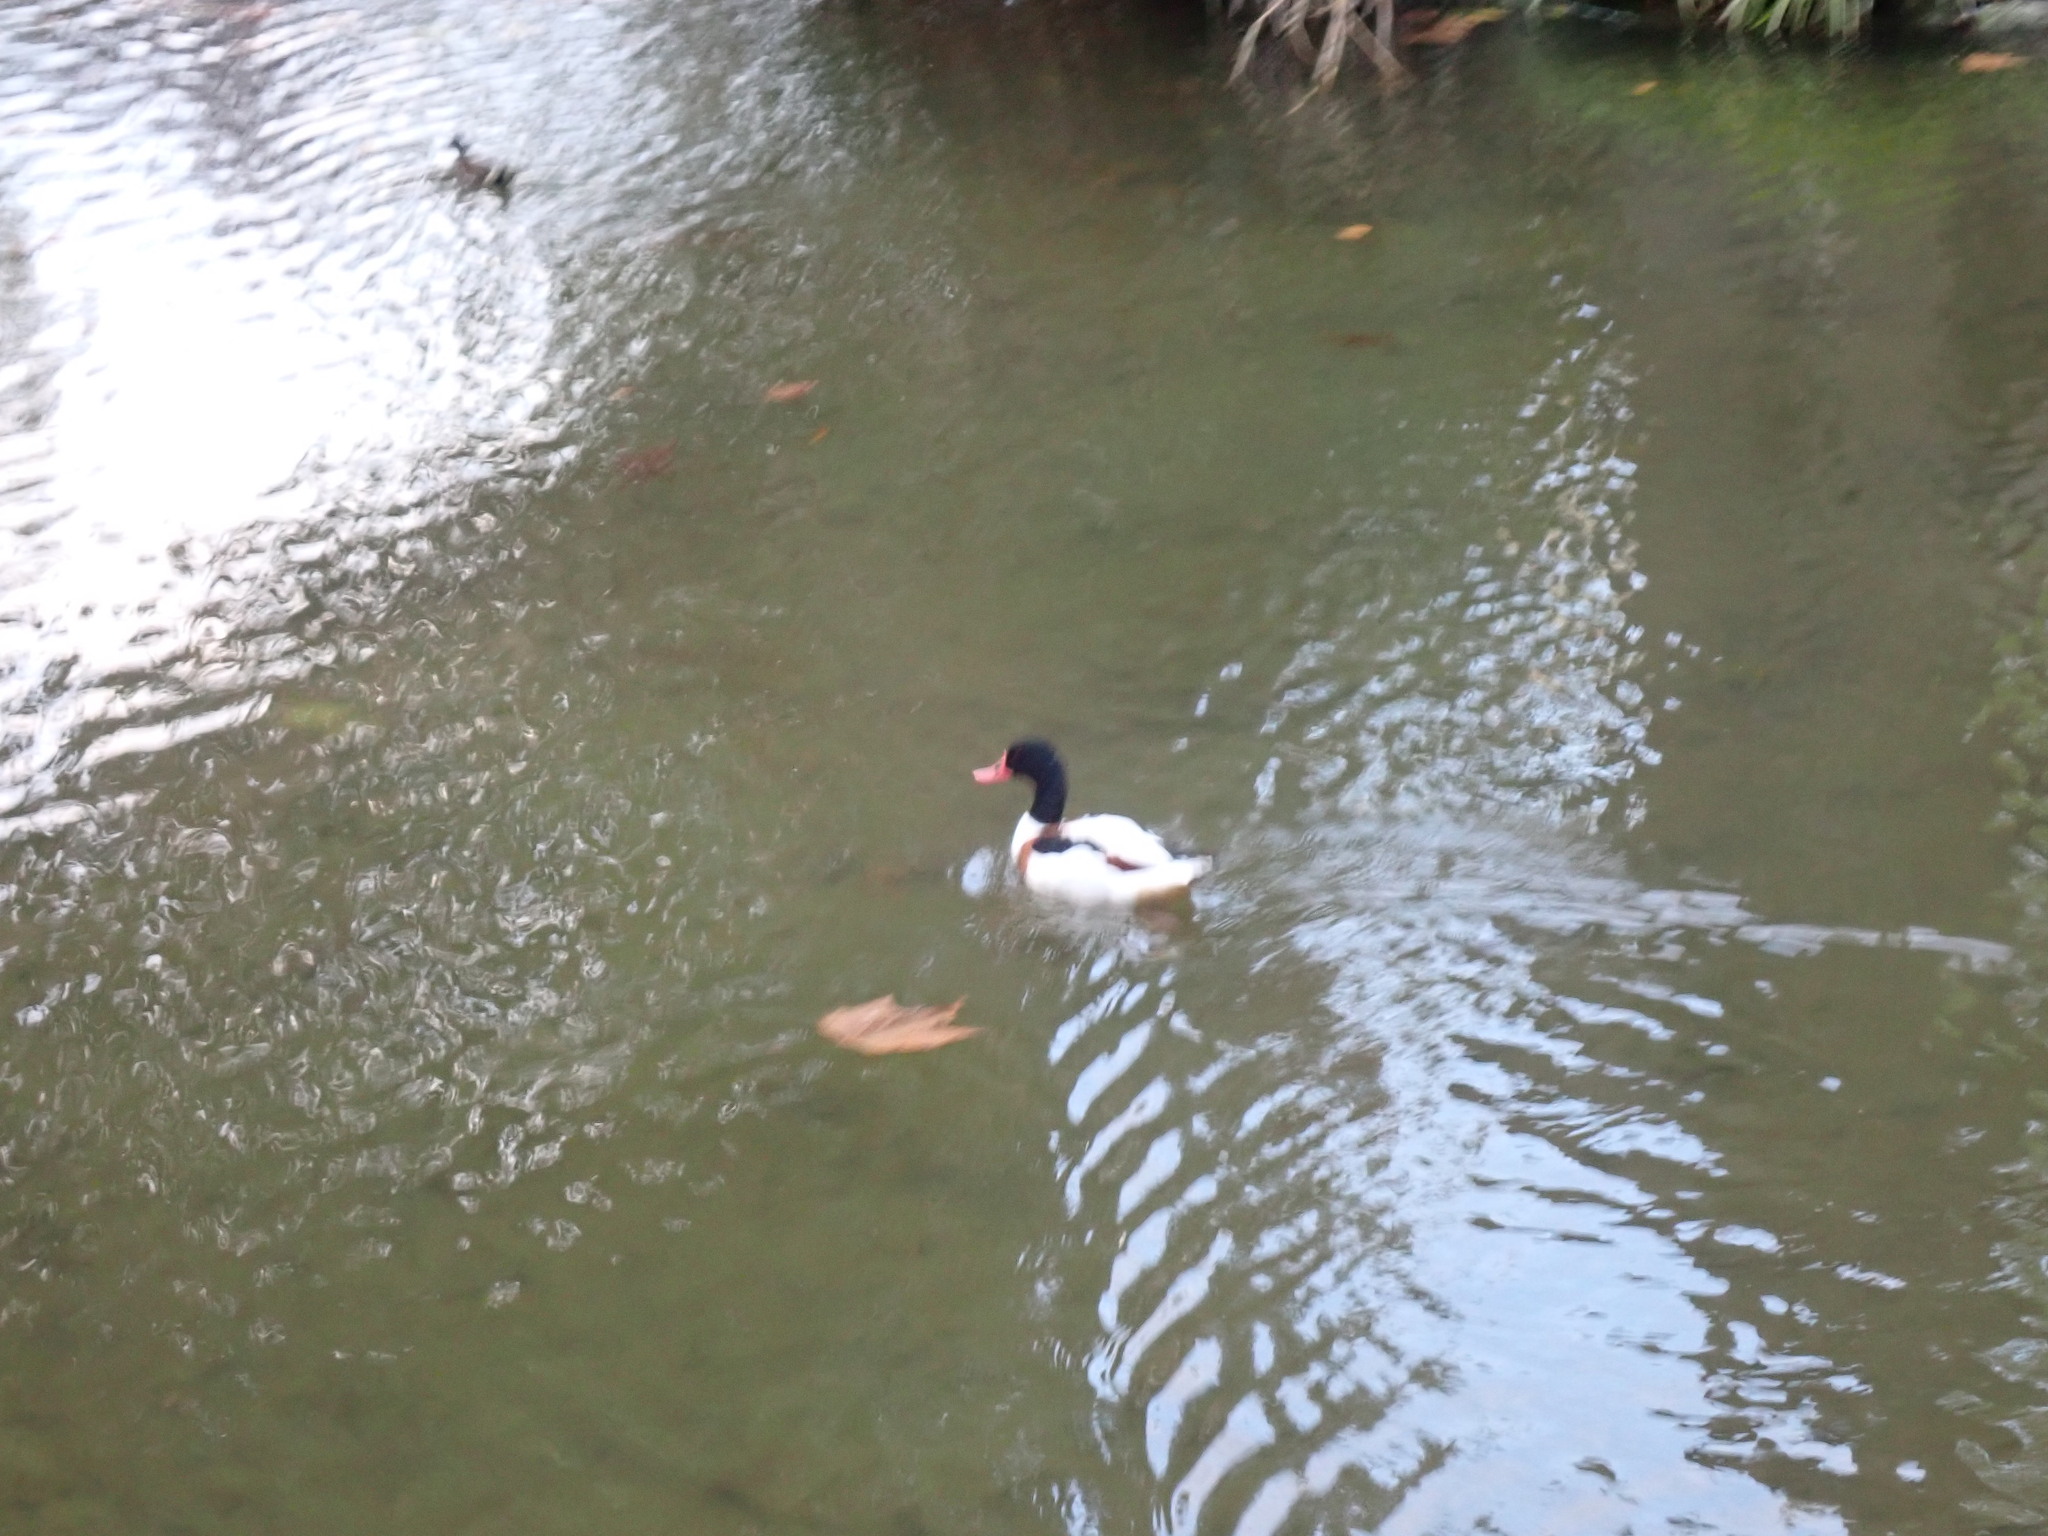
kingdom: Animalia
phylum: Chordata
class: Aves
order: Anseriformes
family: Anatidae
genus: Tadorna
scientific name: Tadorna tadorna
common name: Common shelduck
